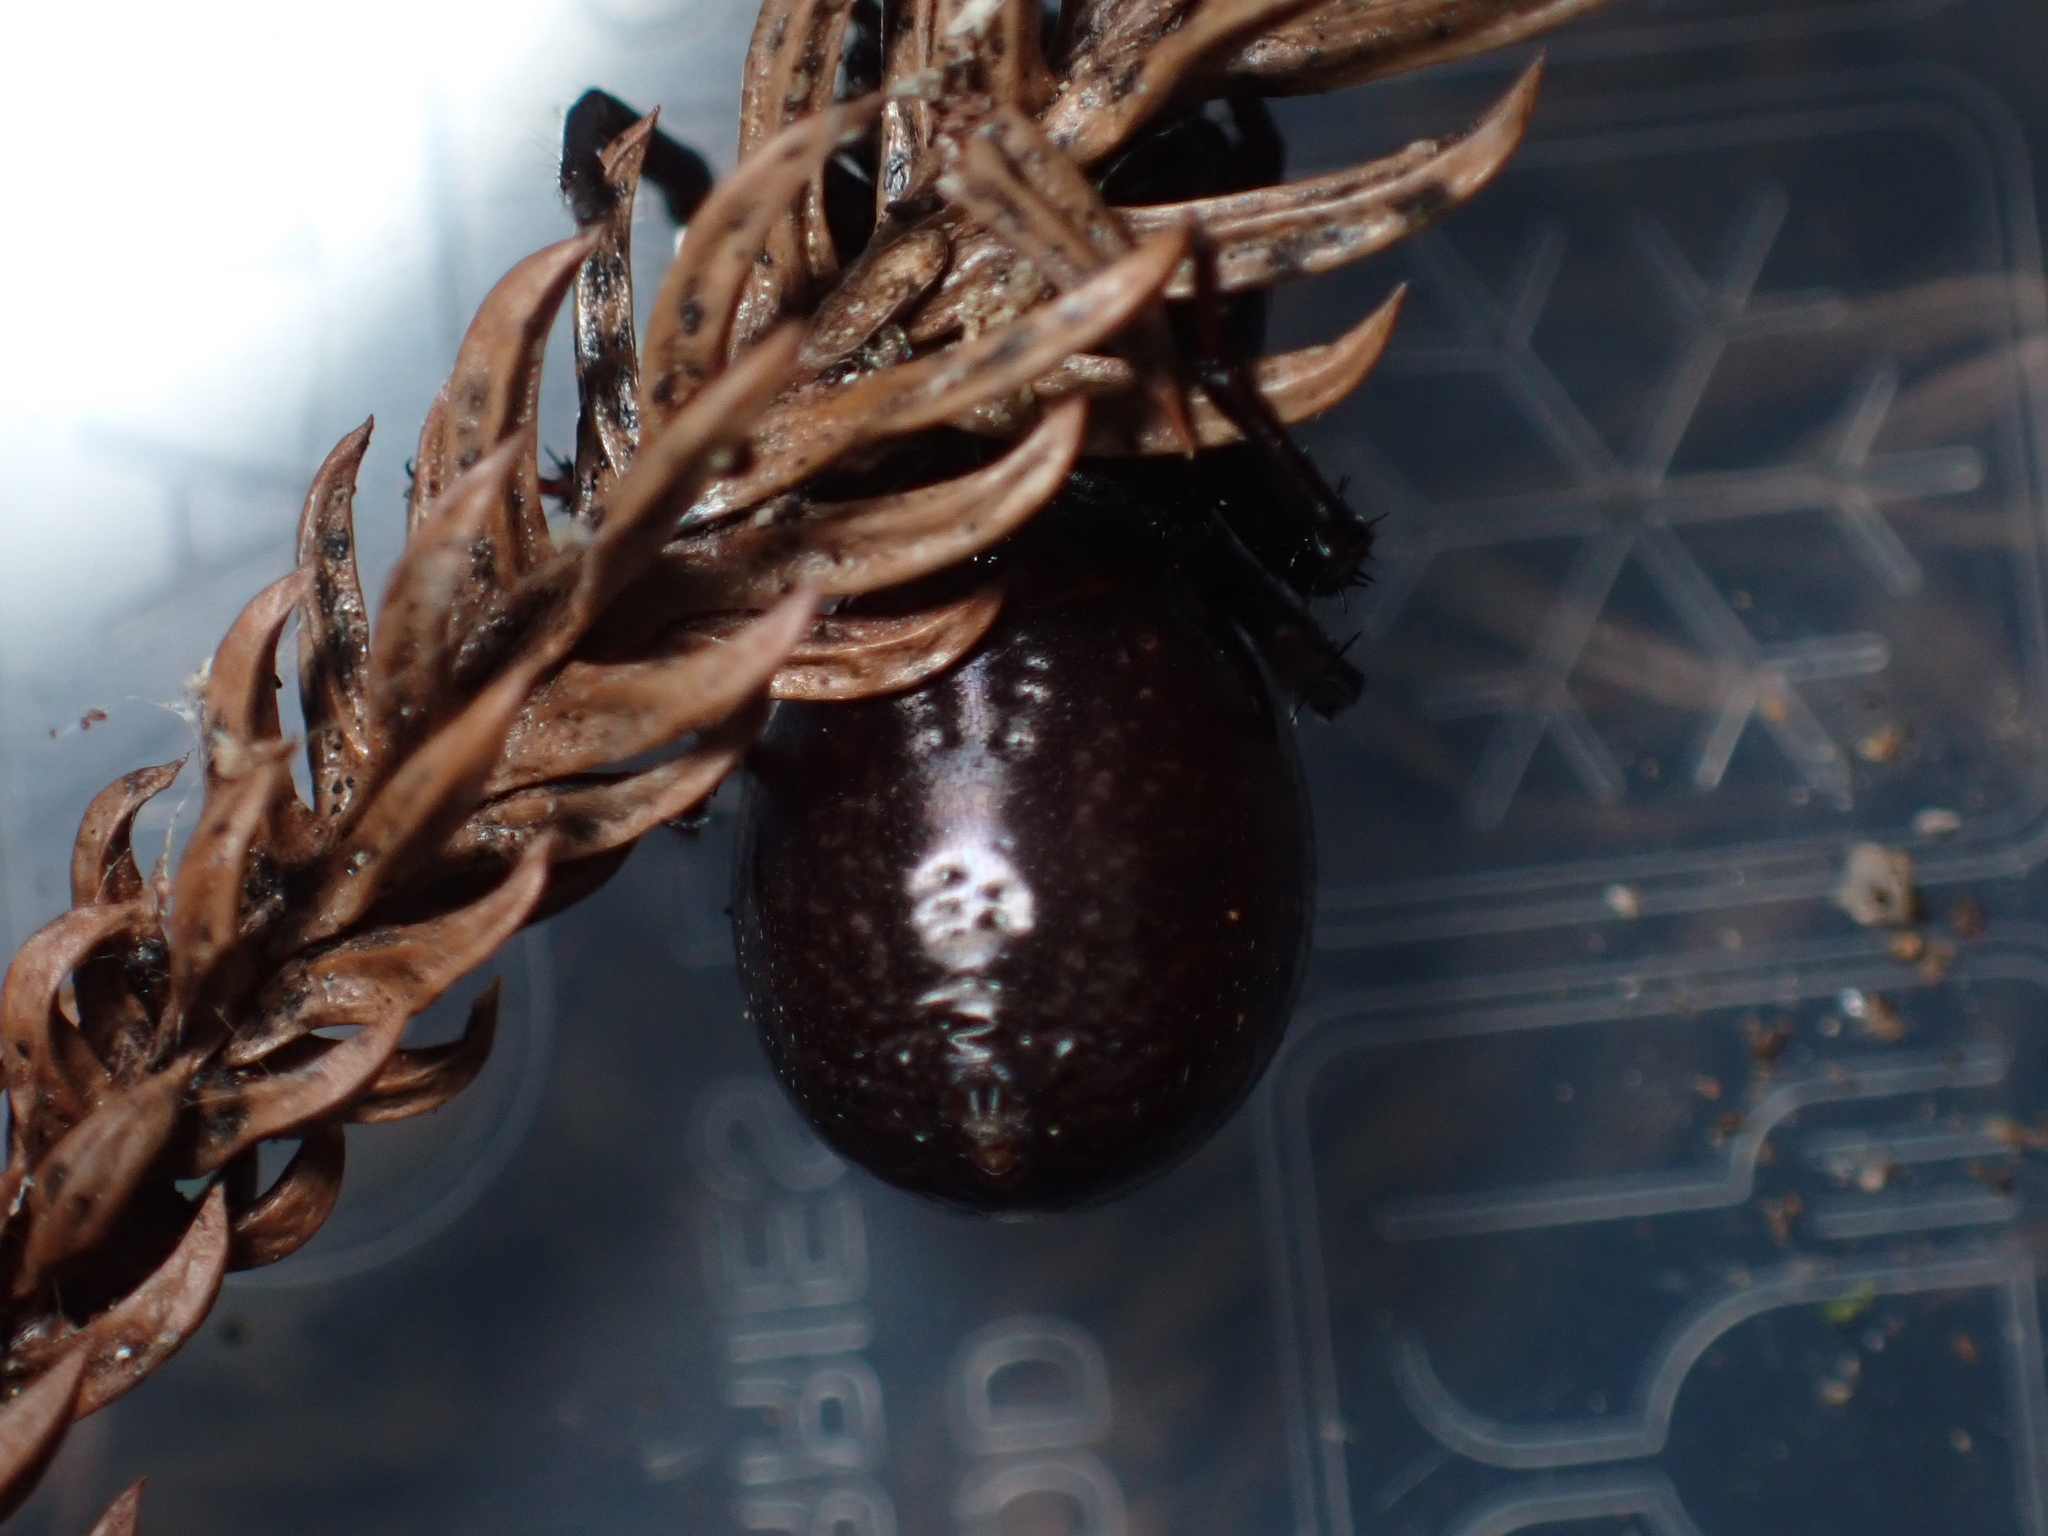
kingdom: Animalia
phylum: Arthropoda
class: Arachnida
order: Araneae
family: Zodariidae
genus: Storosa
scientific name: Storosa obscura
